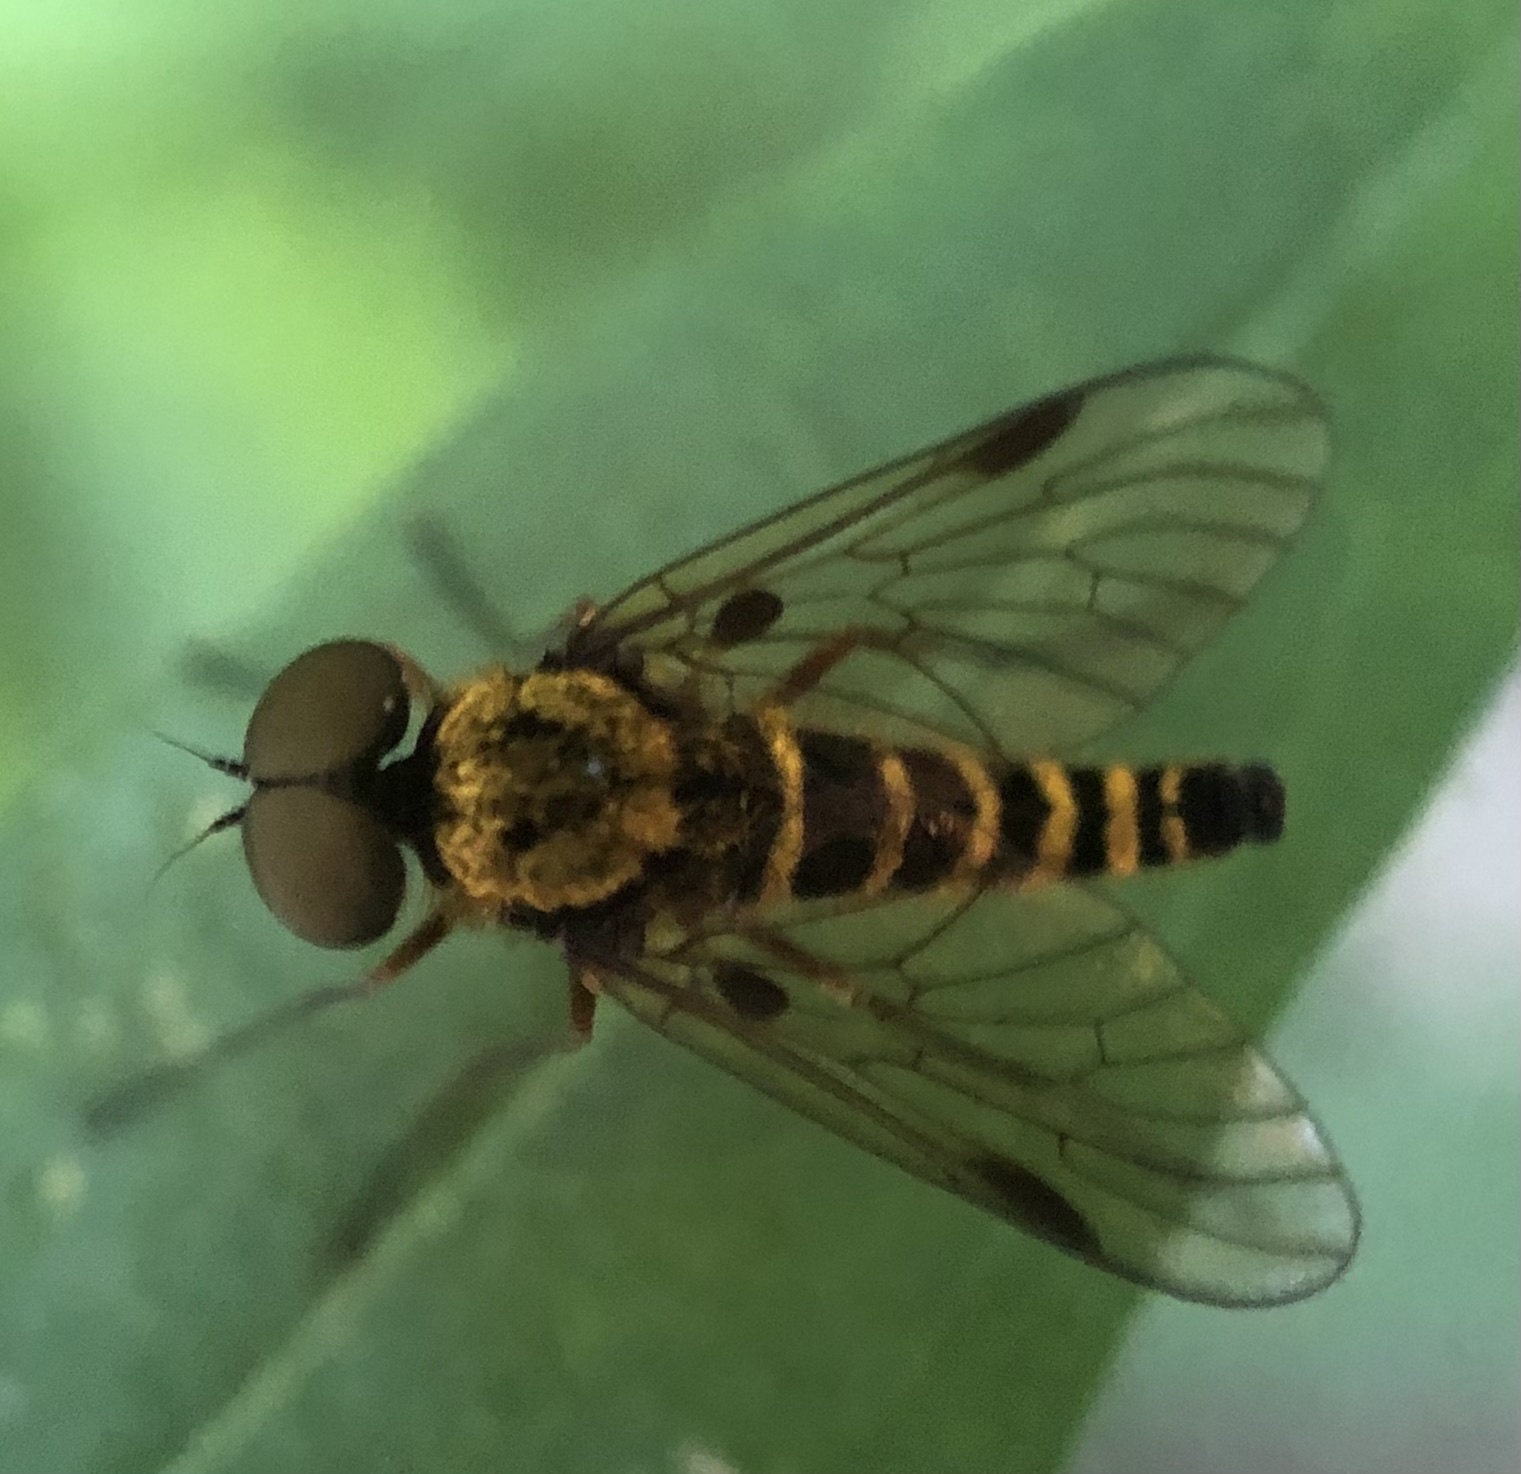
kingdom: Animalia
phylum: Arthropoda
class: Insecta
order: Diptera
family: Rhagionidae
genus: Chrysopilus
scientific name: Chrysopilus fasciatus
